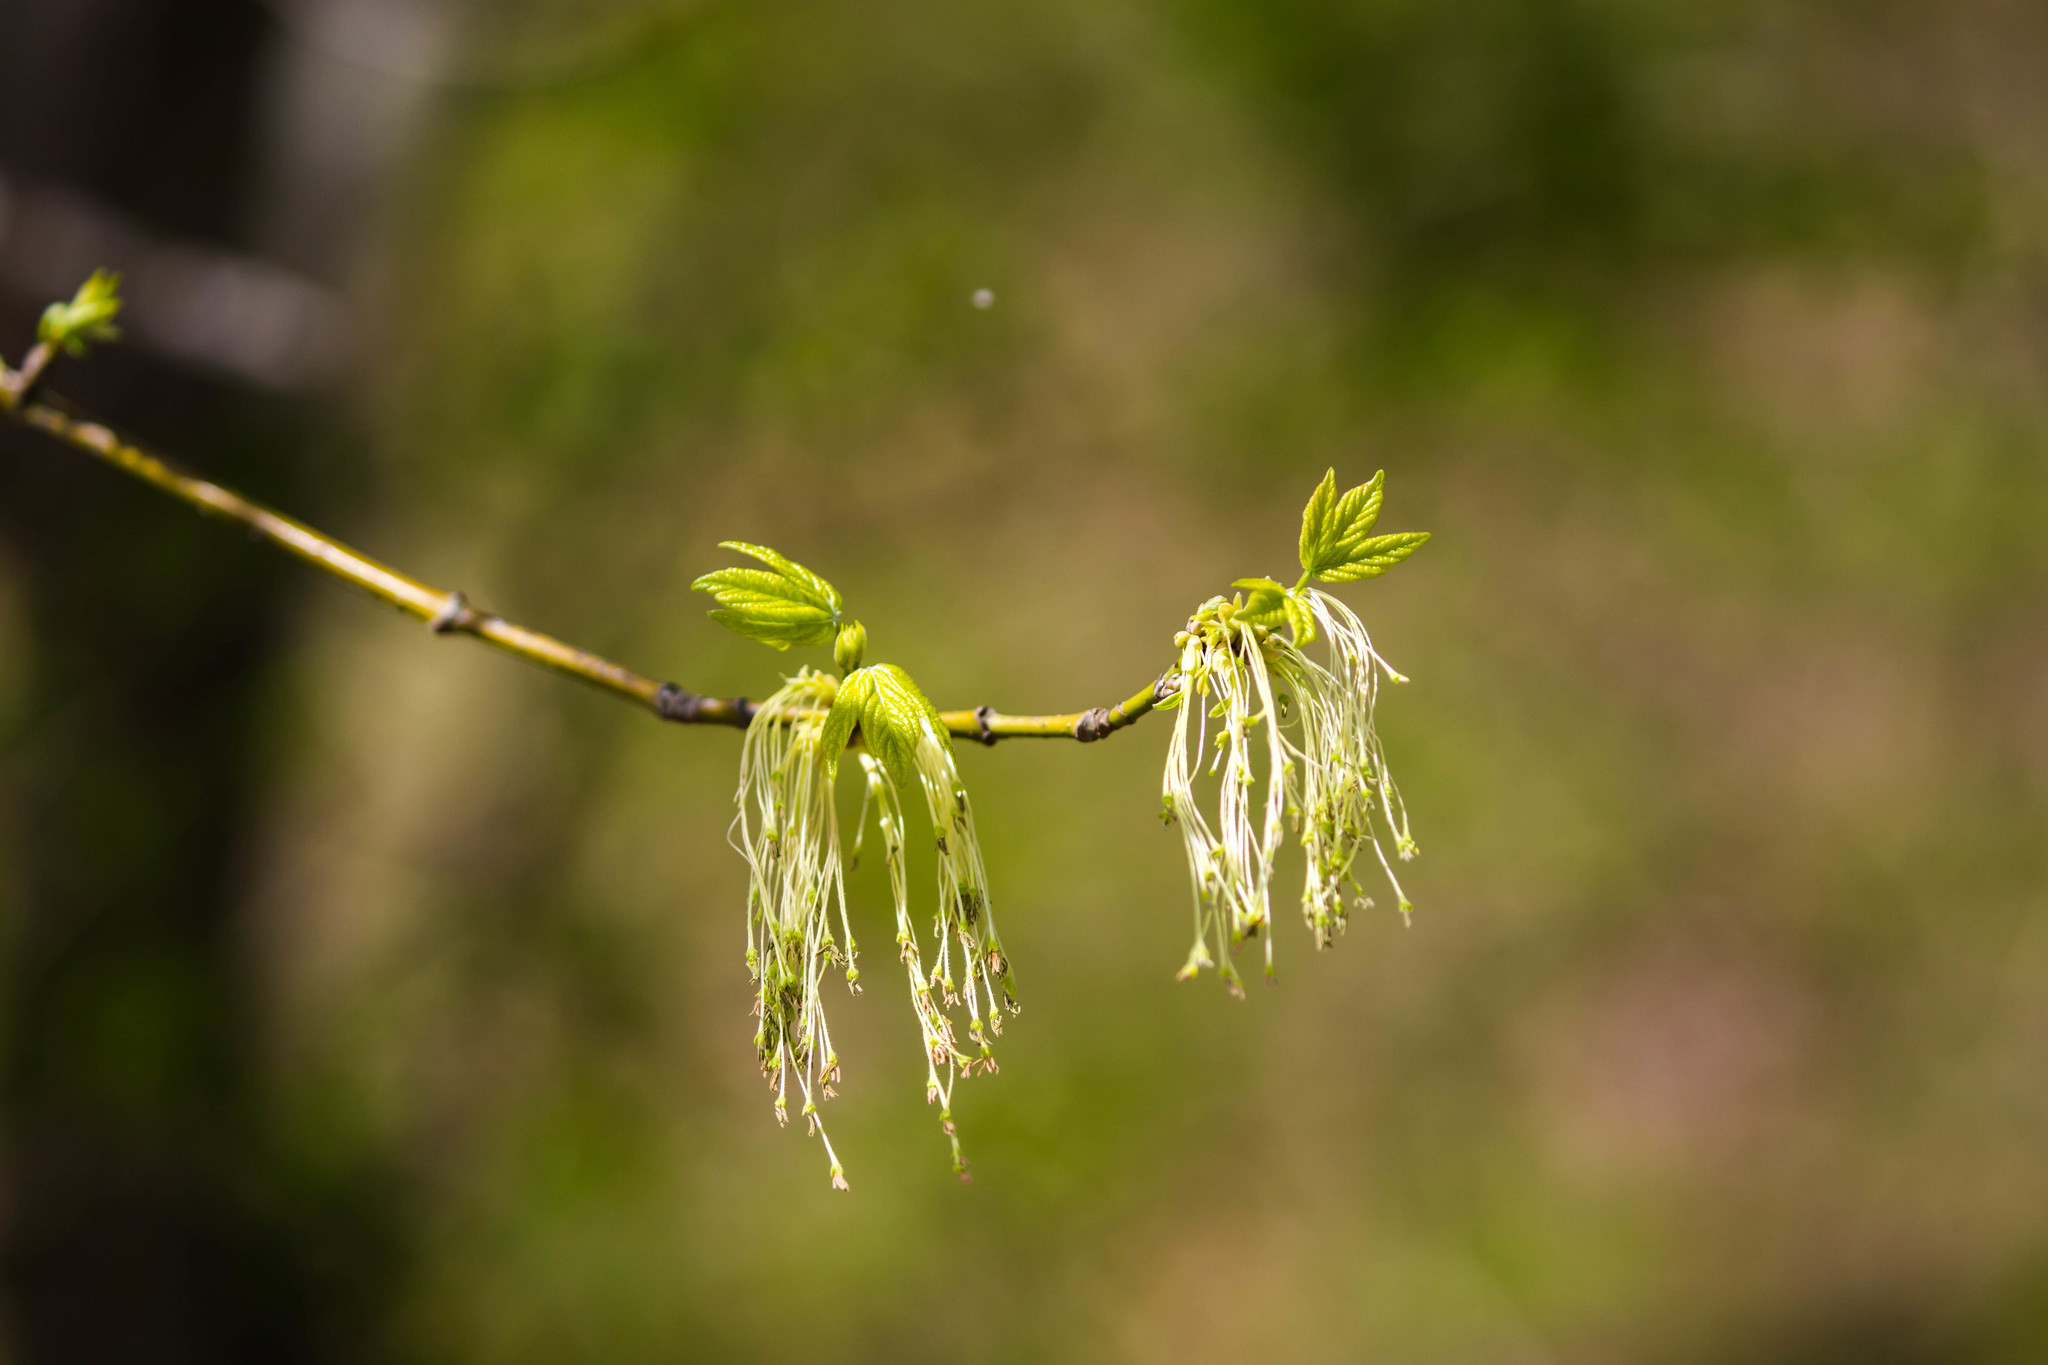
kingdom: Plantae
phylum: Tracheophyta
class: Magnoliopsida
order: Sapindales
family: Sapindaceae
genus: Acer
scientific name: Acer negundo
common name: Ashleaf maple
